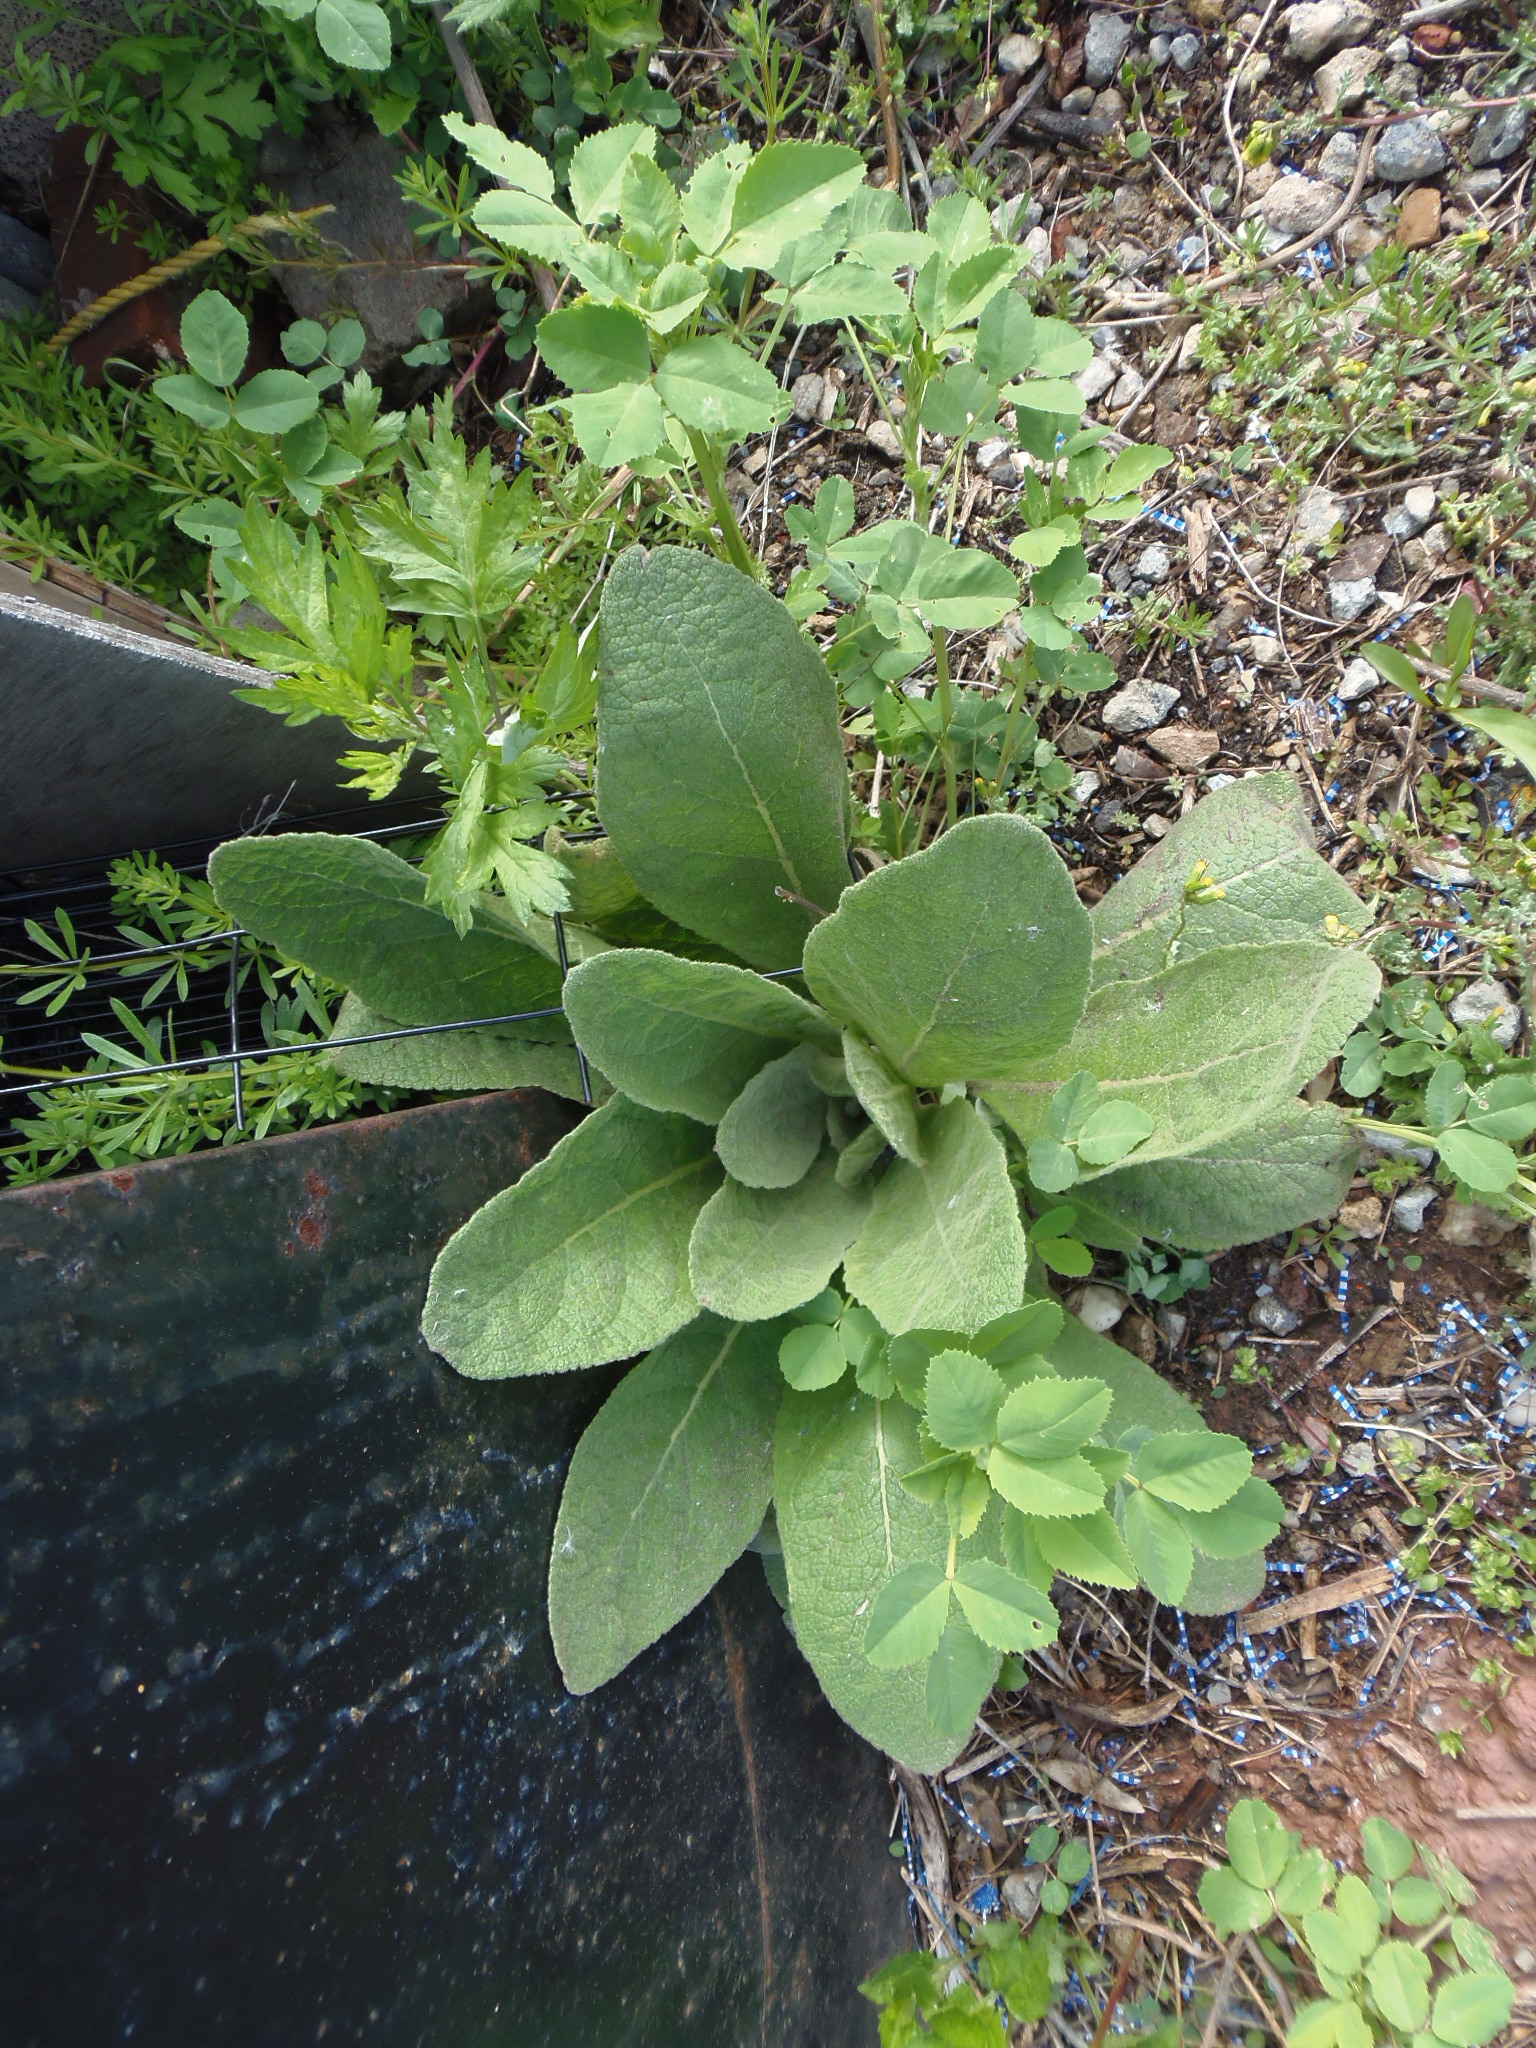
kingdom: Plantae
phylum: Tracheophyta
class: Magnoliopsida
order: Lamiales
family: Scrophulariaceae
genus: Verbascum
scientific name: Verbascum thapsus
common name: Common mullein
